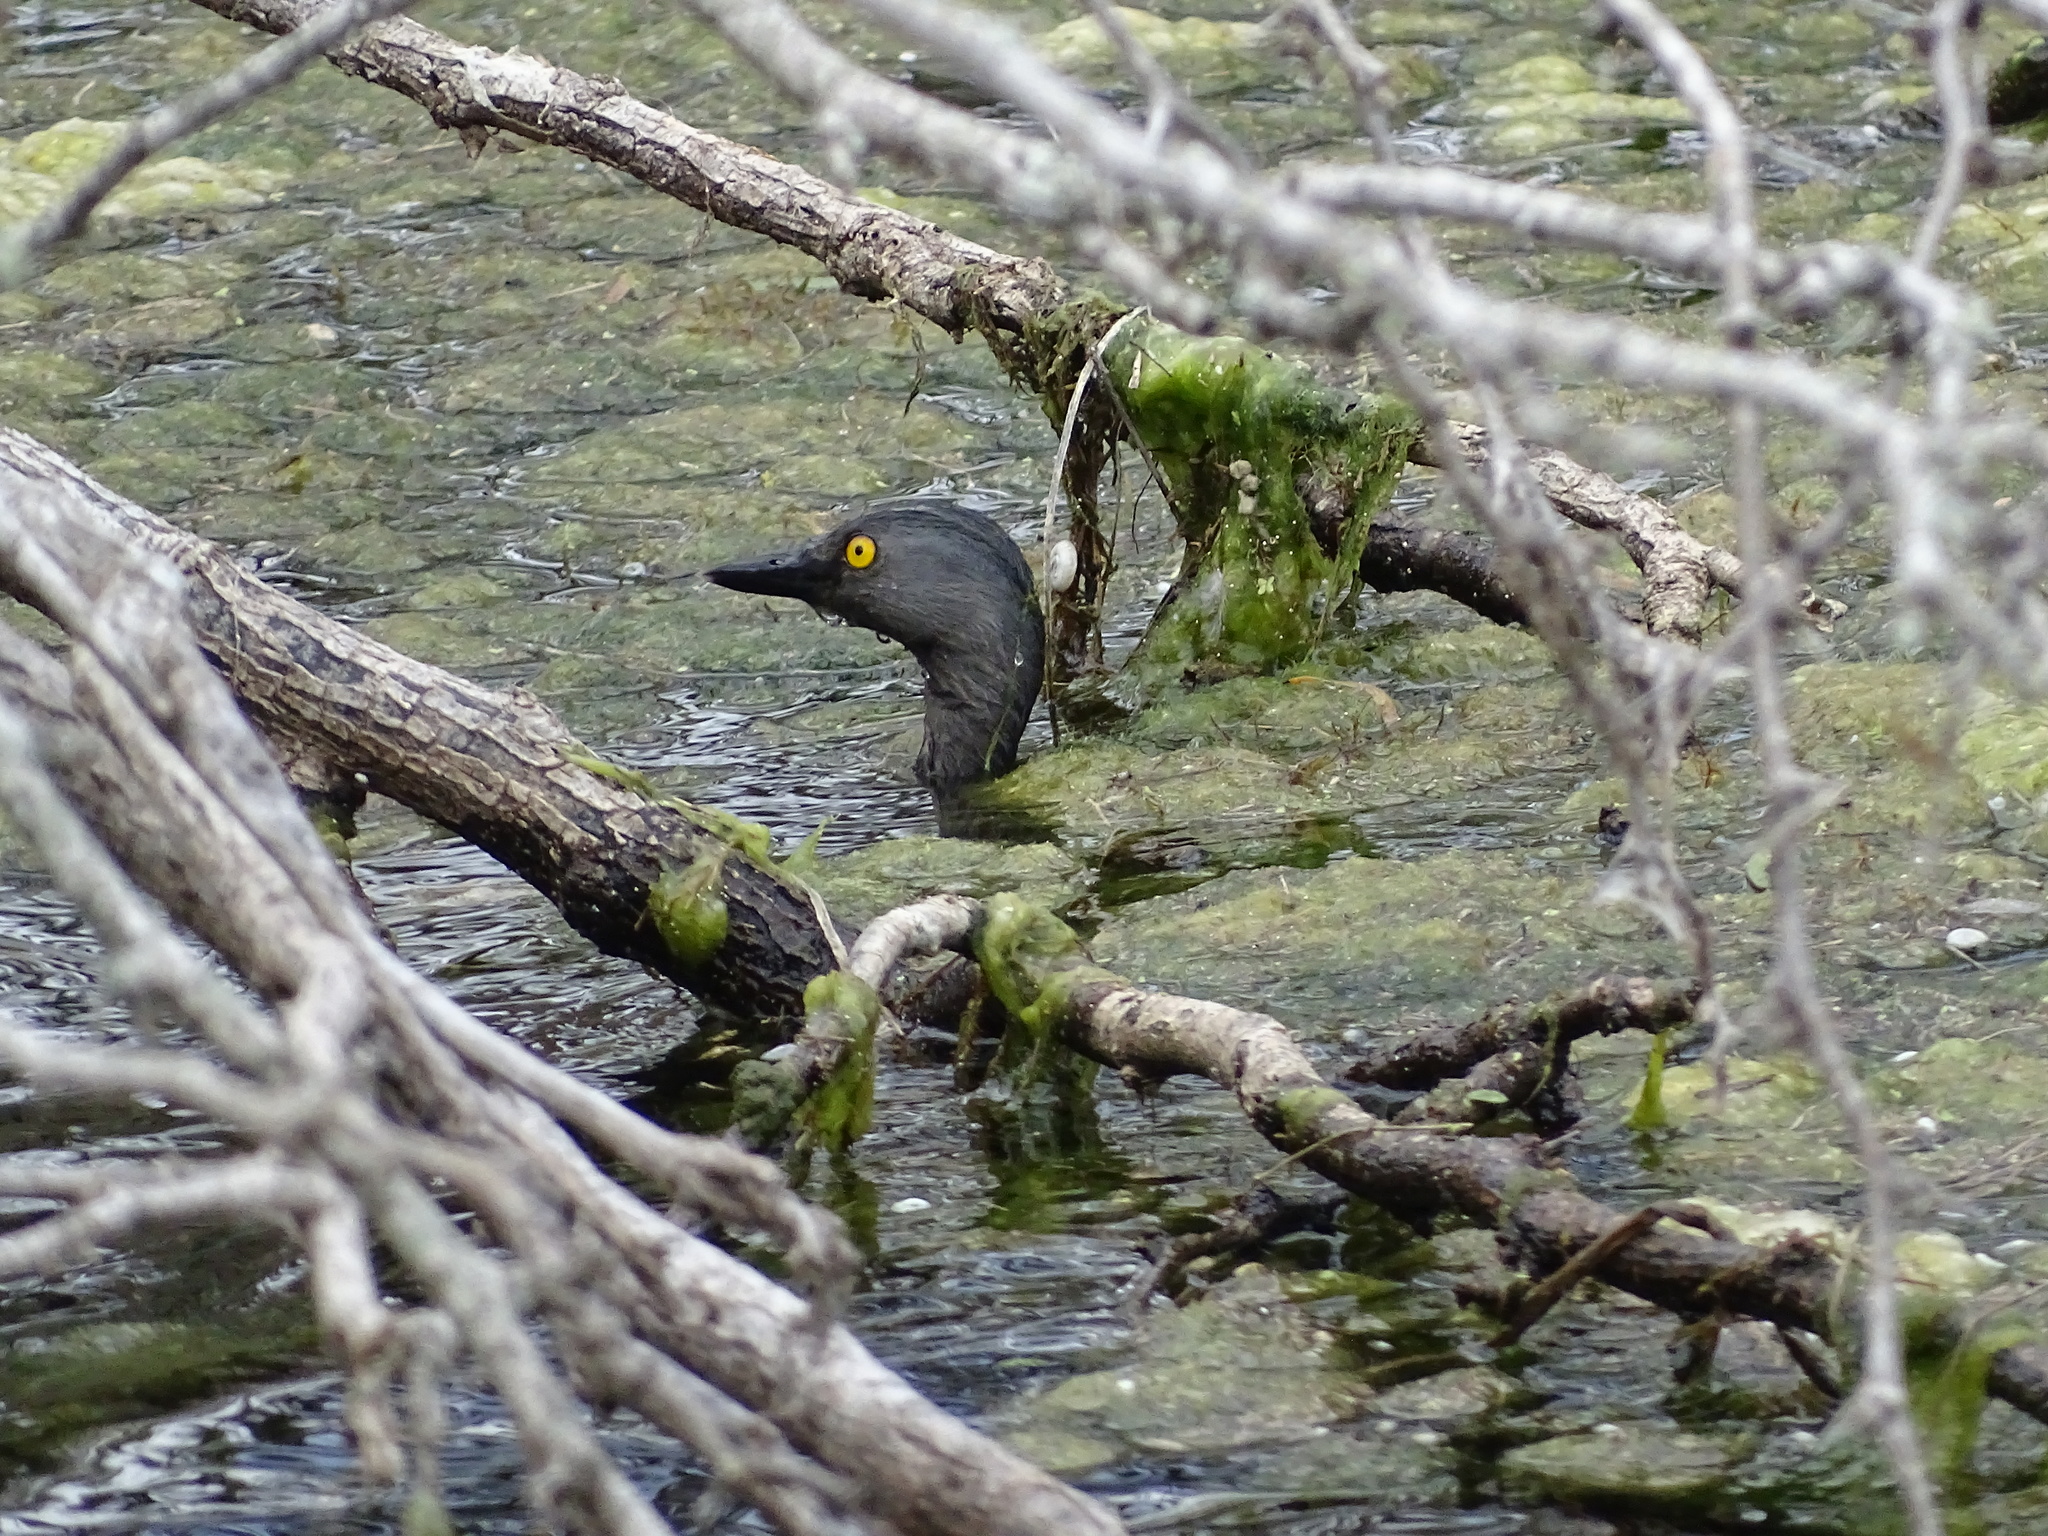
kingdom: Animalia
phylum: Chordata
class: Aves
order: Podicipediformes
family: Podicipedidae
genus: Tachybaptus
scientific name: Tachybaptus dominicus
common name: Least grebe
